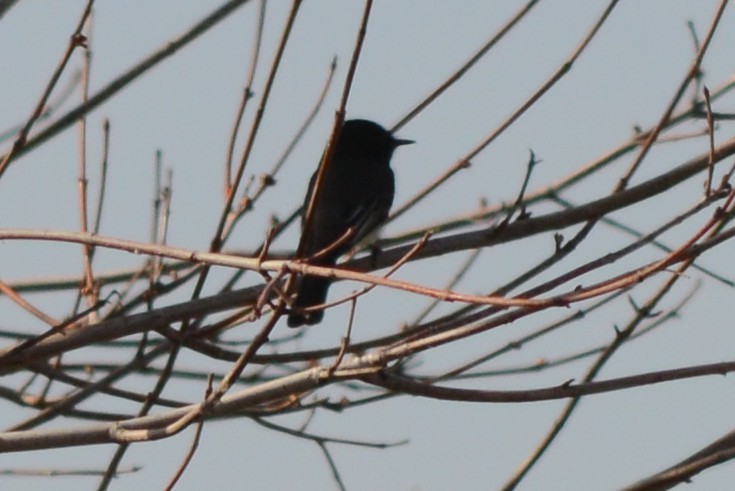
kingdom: Animalia
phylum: Chordata
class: Aves
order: Passeriformes
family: Tyrannidae
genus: Sayornis
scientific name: Sayornis nigricans
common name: Black phoebe
